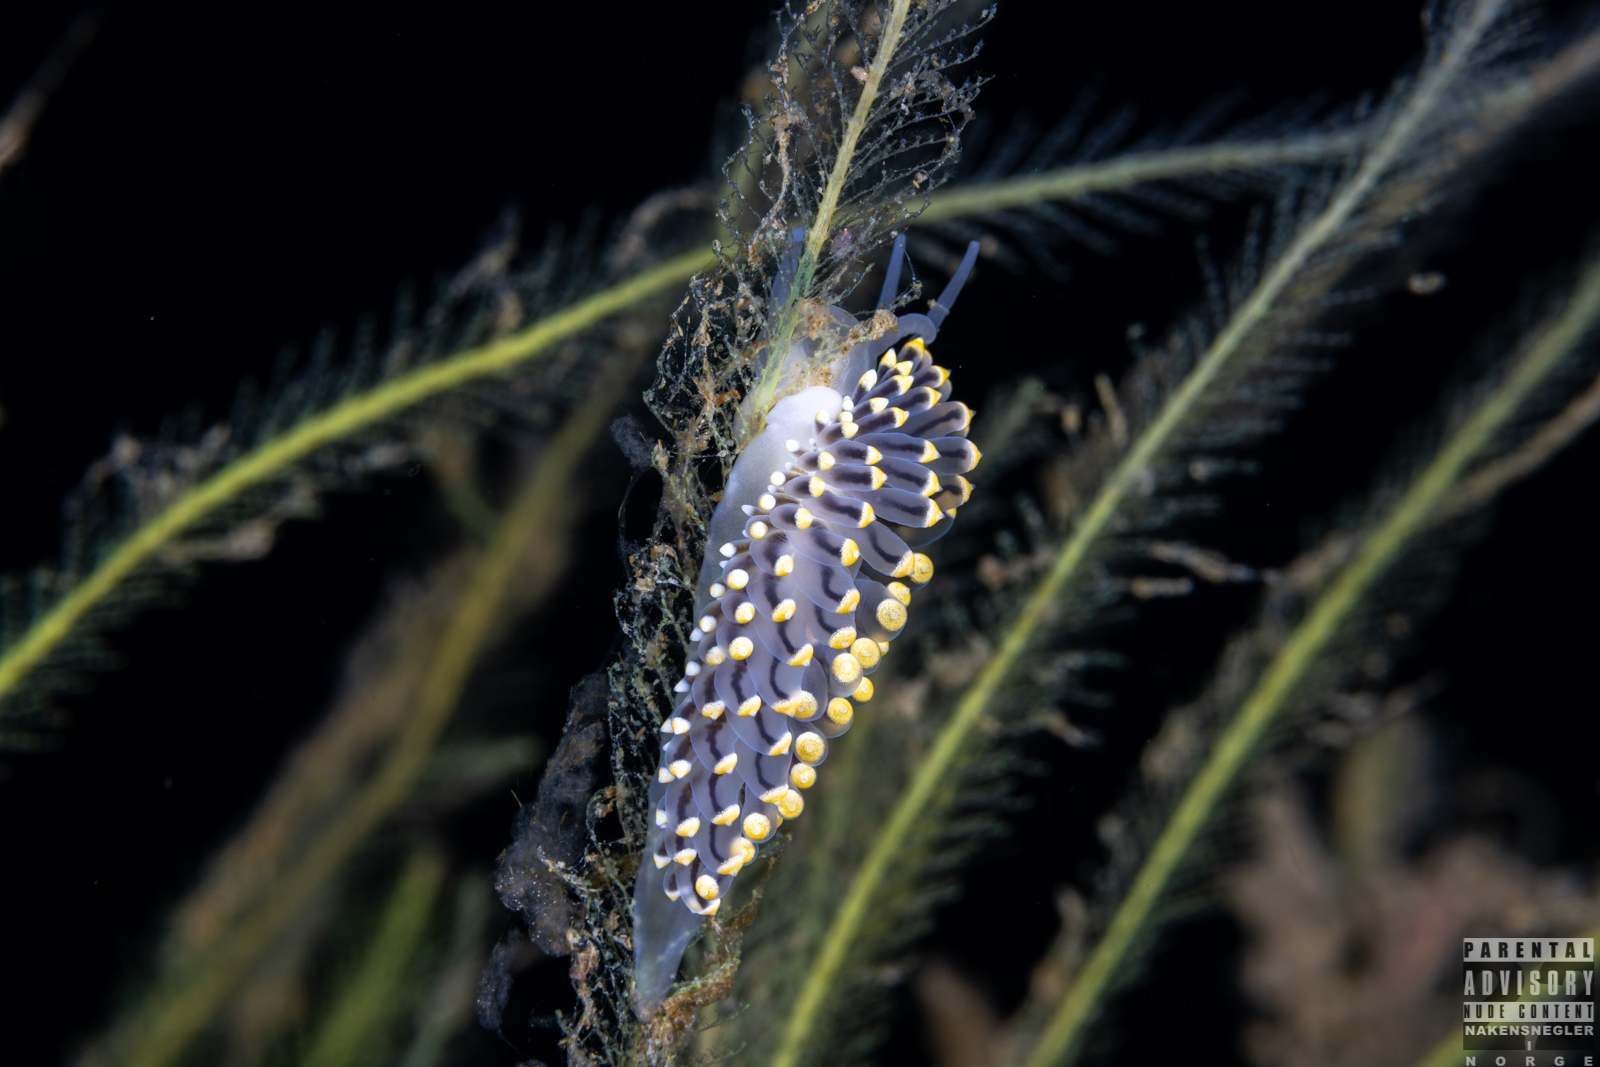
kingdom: Animalia
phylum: Mollusca
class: Gastropoda
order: Nudibranchia
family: Eubranchidae
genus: Eubranchus
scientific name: Eubranchus tricolor
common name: Painted balloon aeolis
